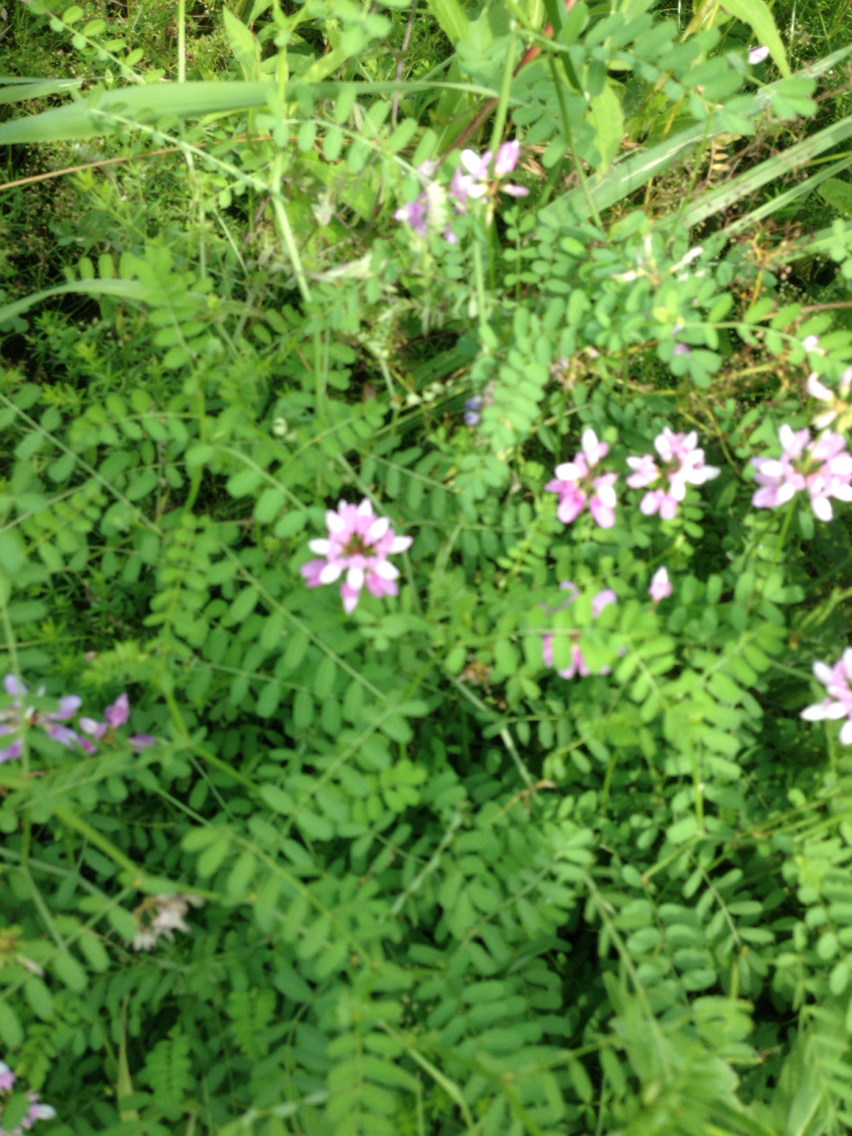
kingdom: Plantae
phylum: Tracheophyta
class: Magnoliopsida
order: Fabales
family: Fabaceae
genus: Coronilla
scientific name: Coronilla varia
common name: Crownvetch
